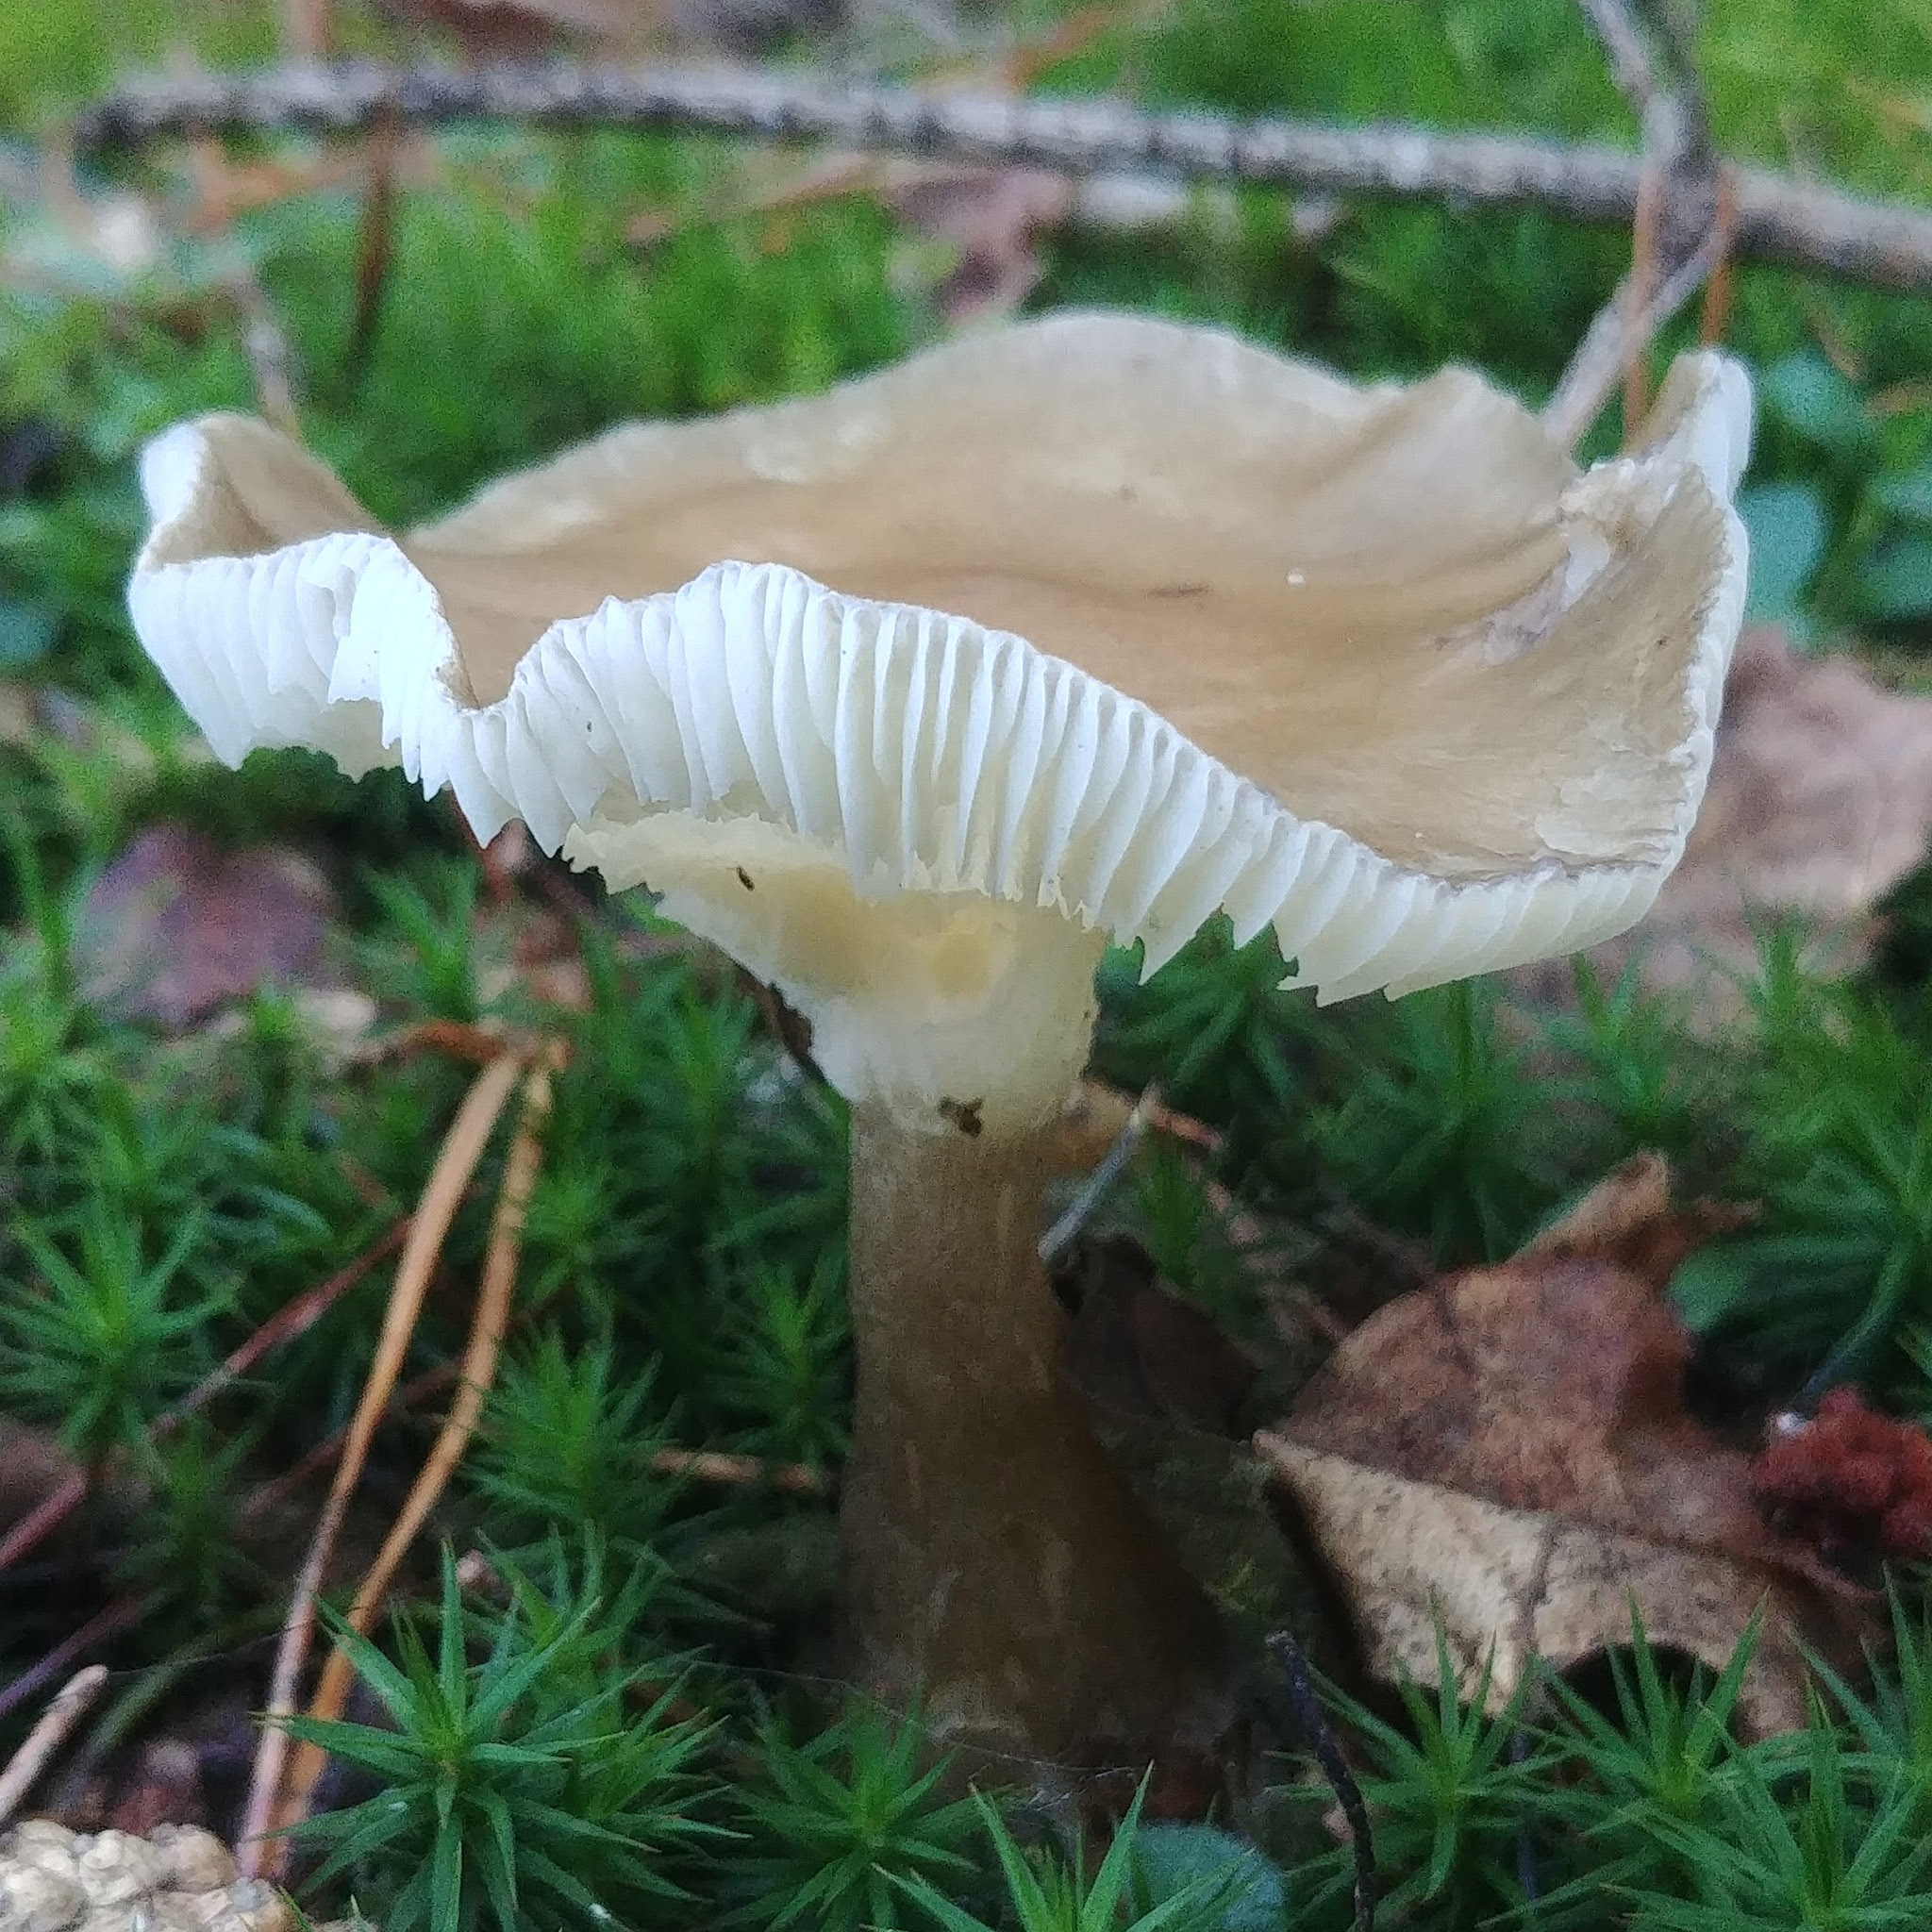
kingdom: Fungi
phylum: Basidiomycota
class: Agaricomycetes
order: Agaricales
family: Hygrophoraceae
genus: Ampulloclitocybe
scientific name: Ampulloclitocybe clavipes
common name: Club foot
